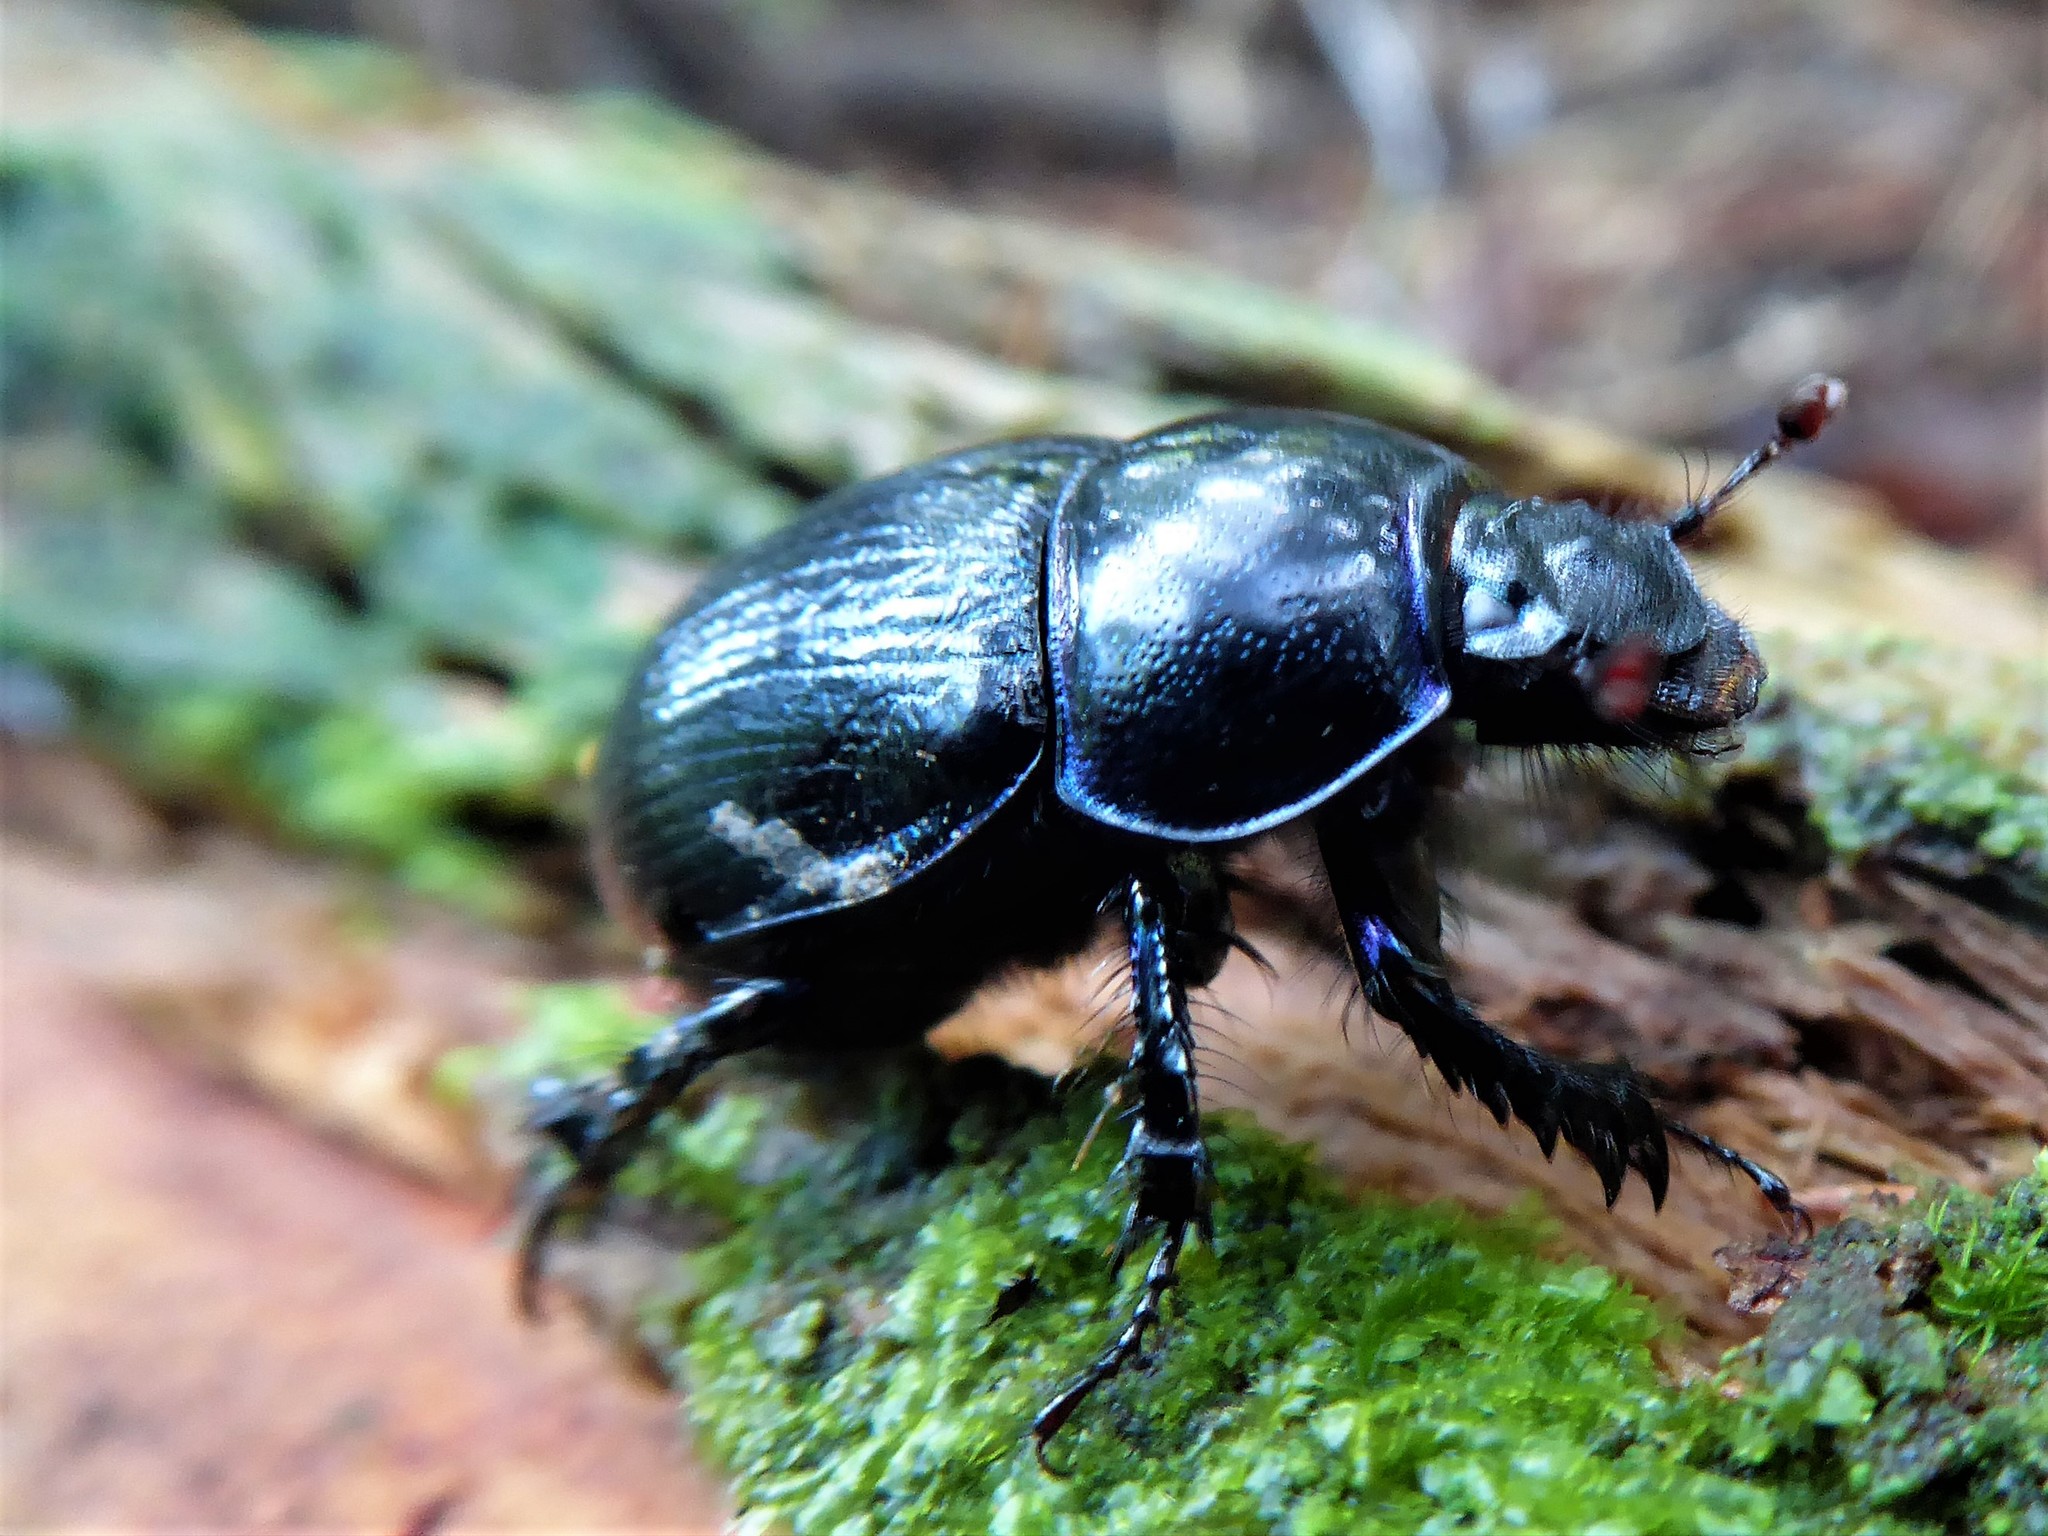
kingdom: Animalia
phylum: Arthropoda
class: Insecta
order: Coleoptera
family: Geotrupidae
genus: Anoplotrupes
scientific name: Anoplotrupes stercorosus
